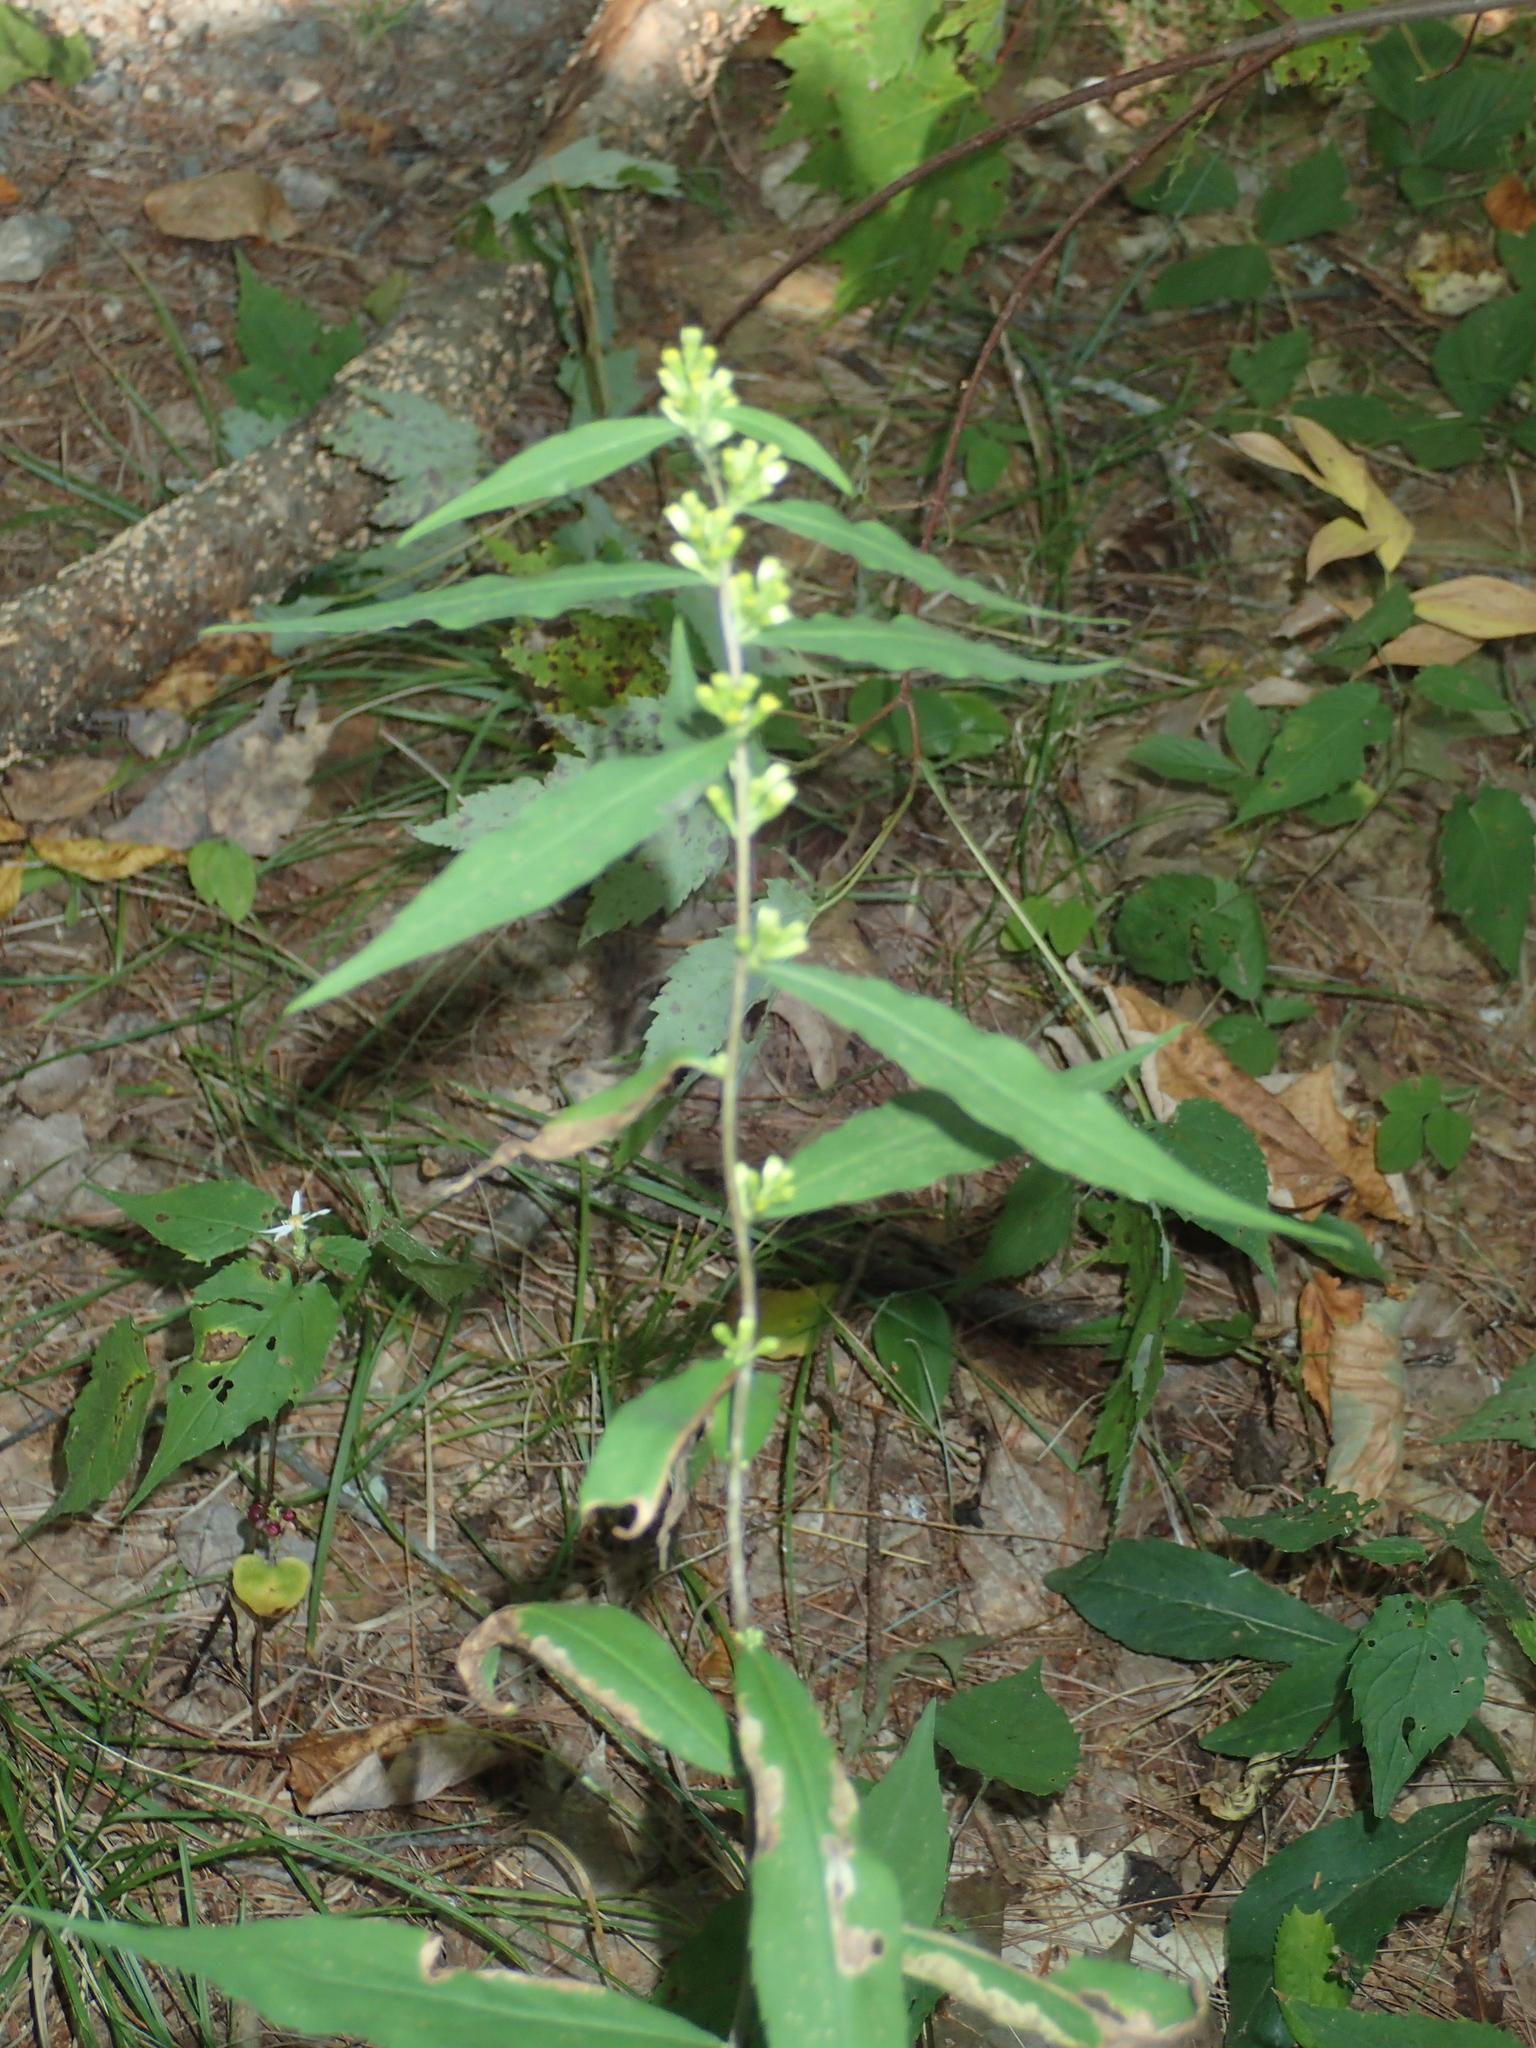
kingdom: Plantae
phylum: Tracheophyta
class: Magnoliopsida
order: Asterales
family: Asteraceae
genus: Solidago
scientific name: Solidago caesia
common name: Woodland goldenrod
